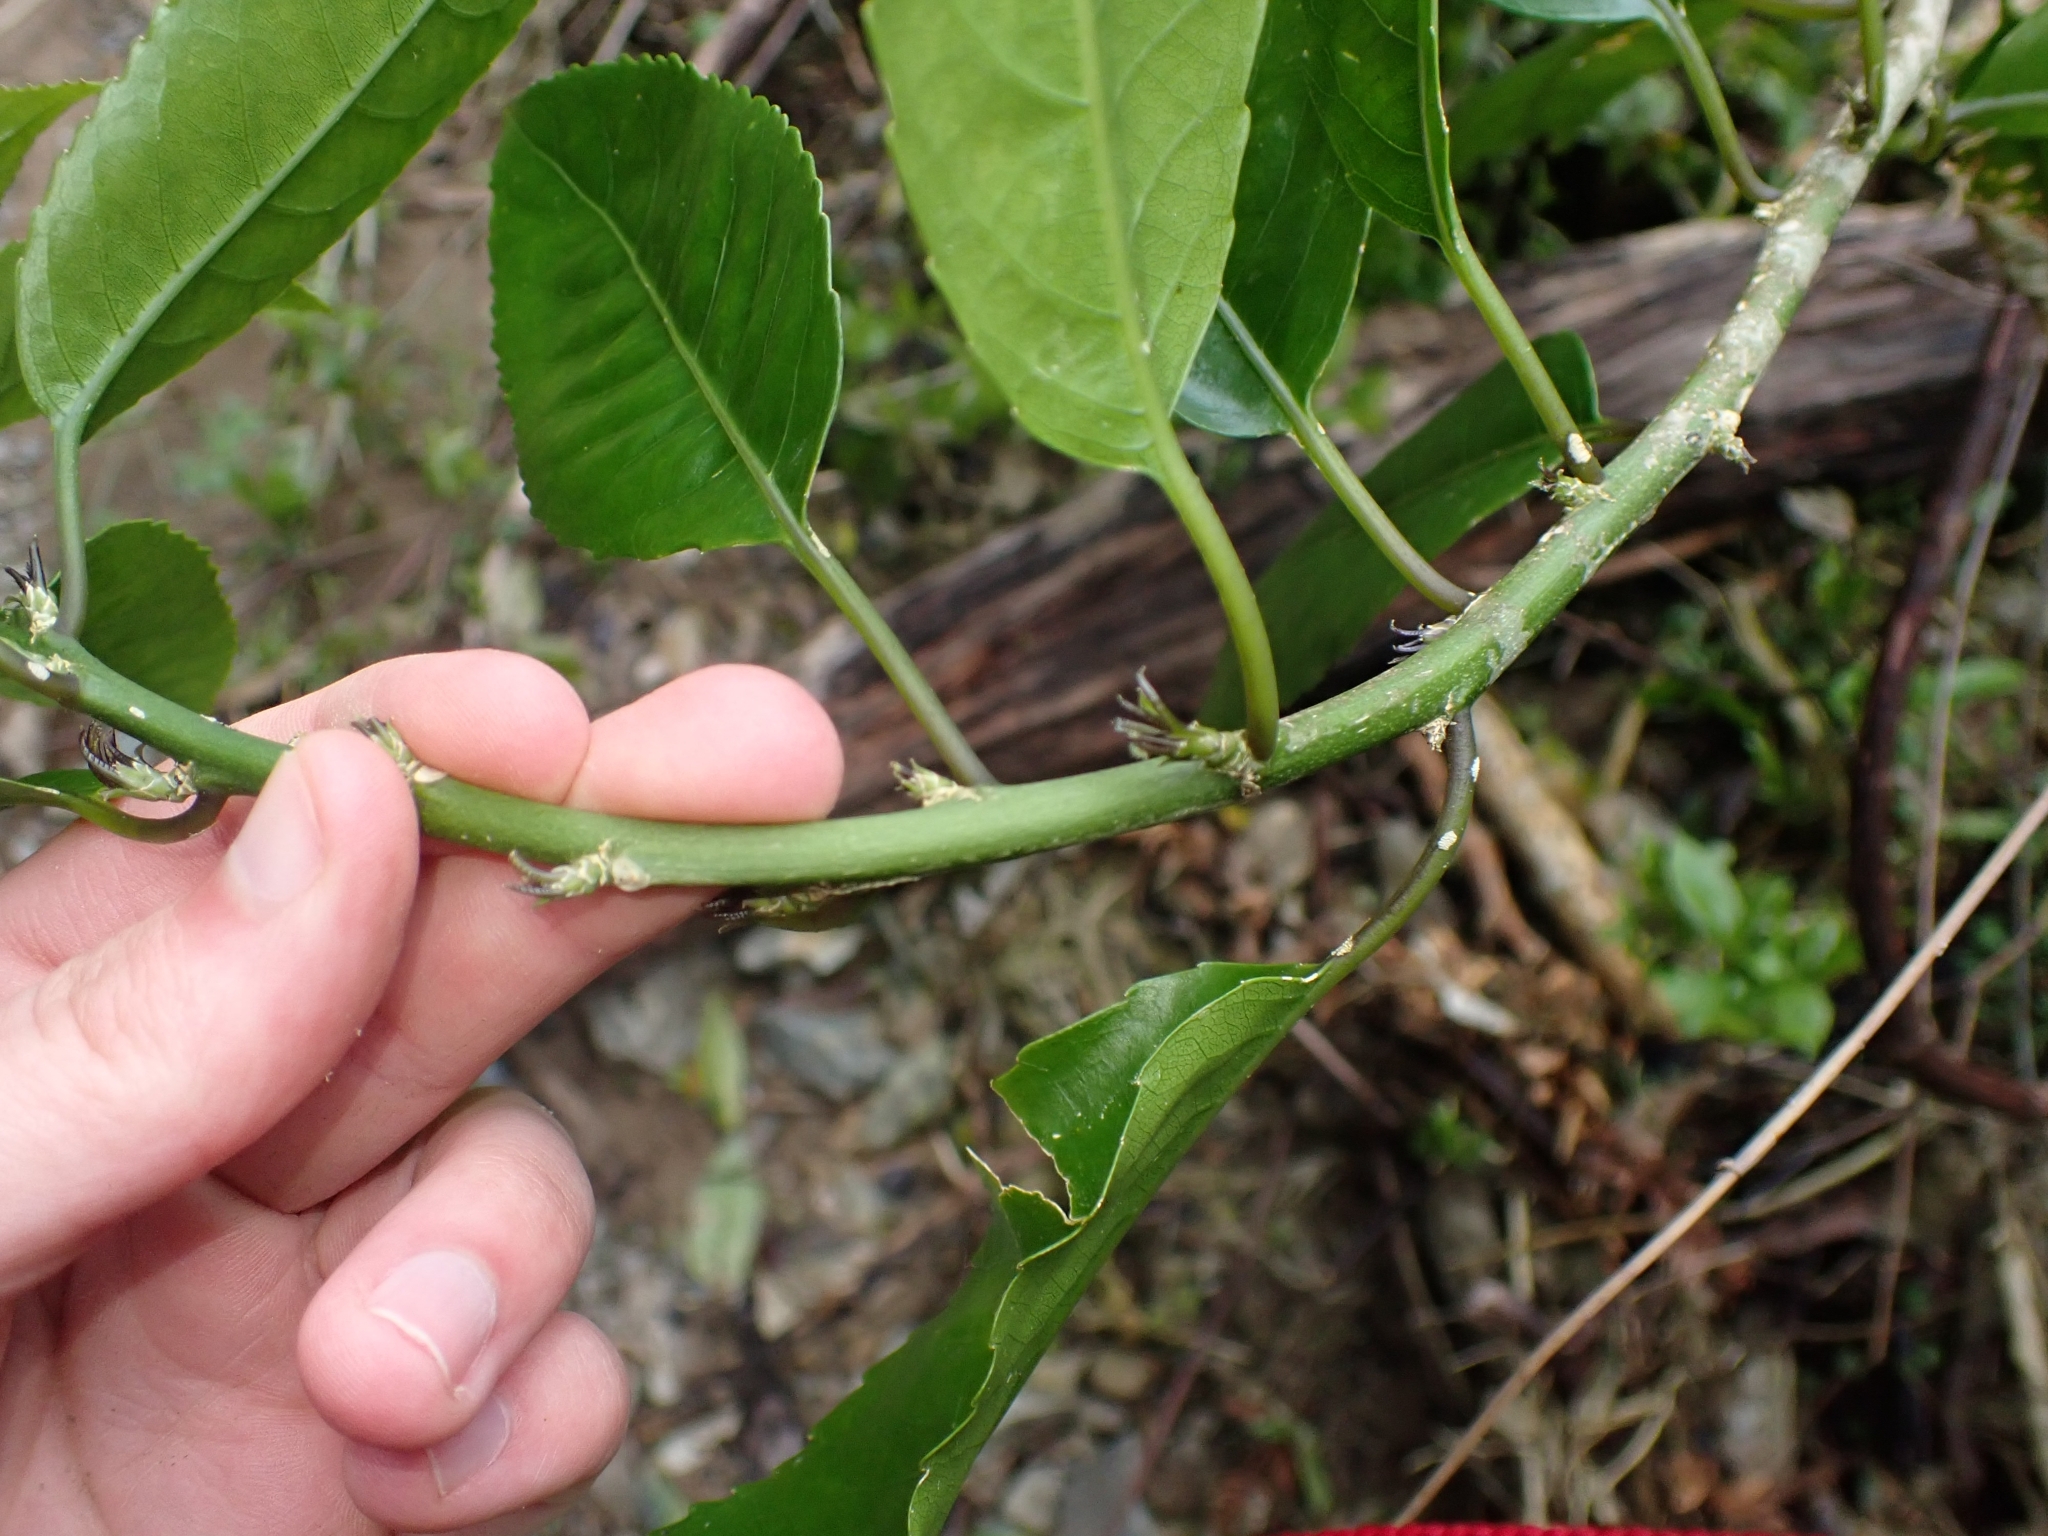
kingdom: Plantae
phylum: Tracheophyta
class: Magnoliopsida
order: Malpighiales
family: Violaceae
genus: Melicytus
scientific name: Melicytus ramiflorus
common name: Mahoe
